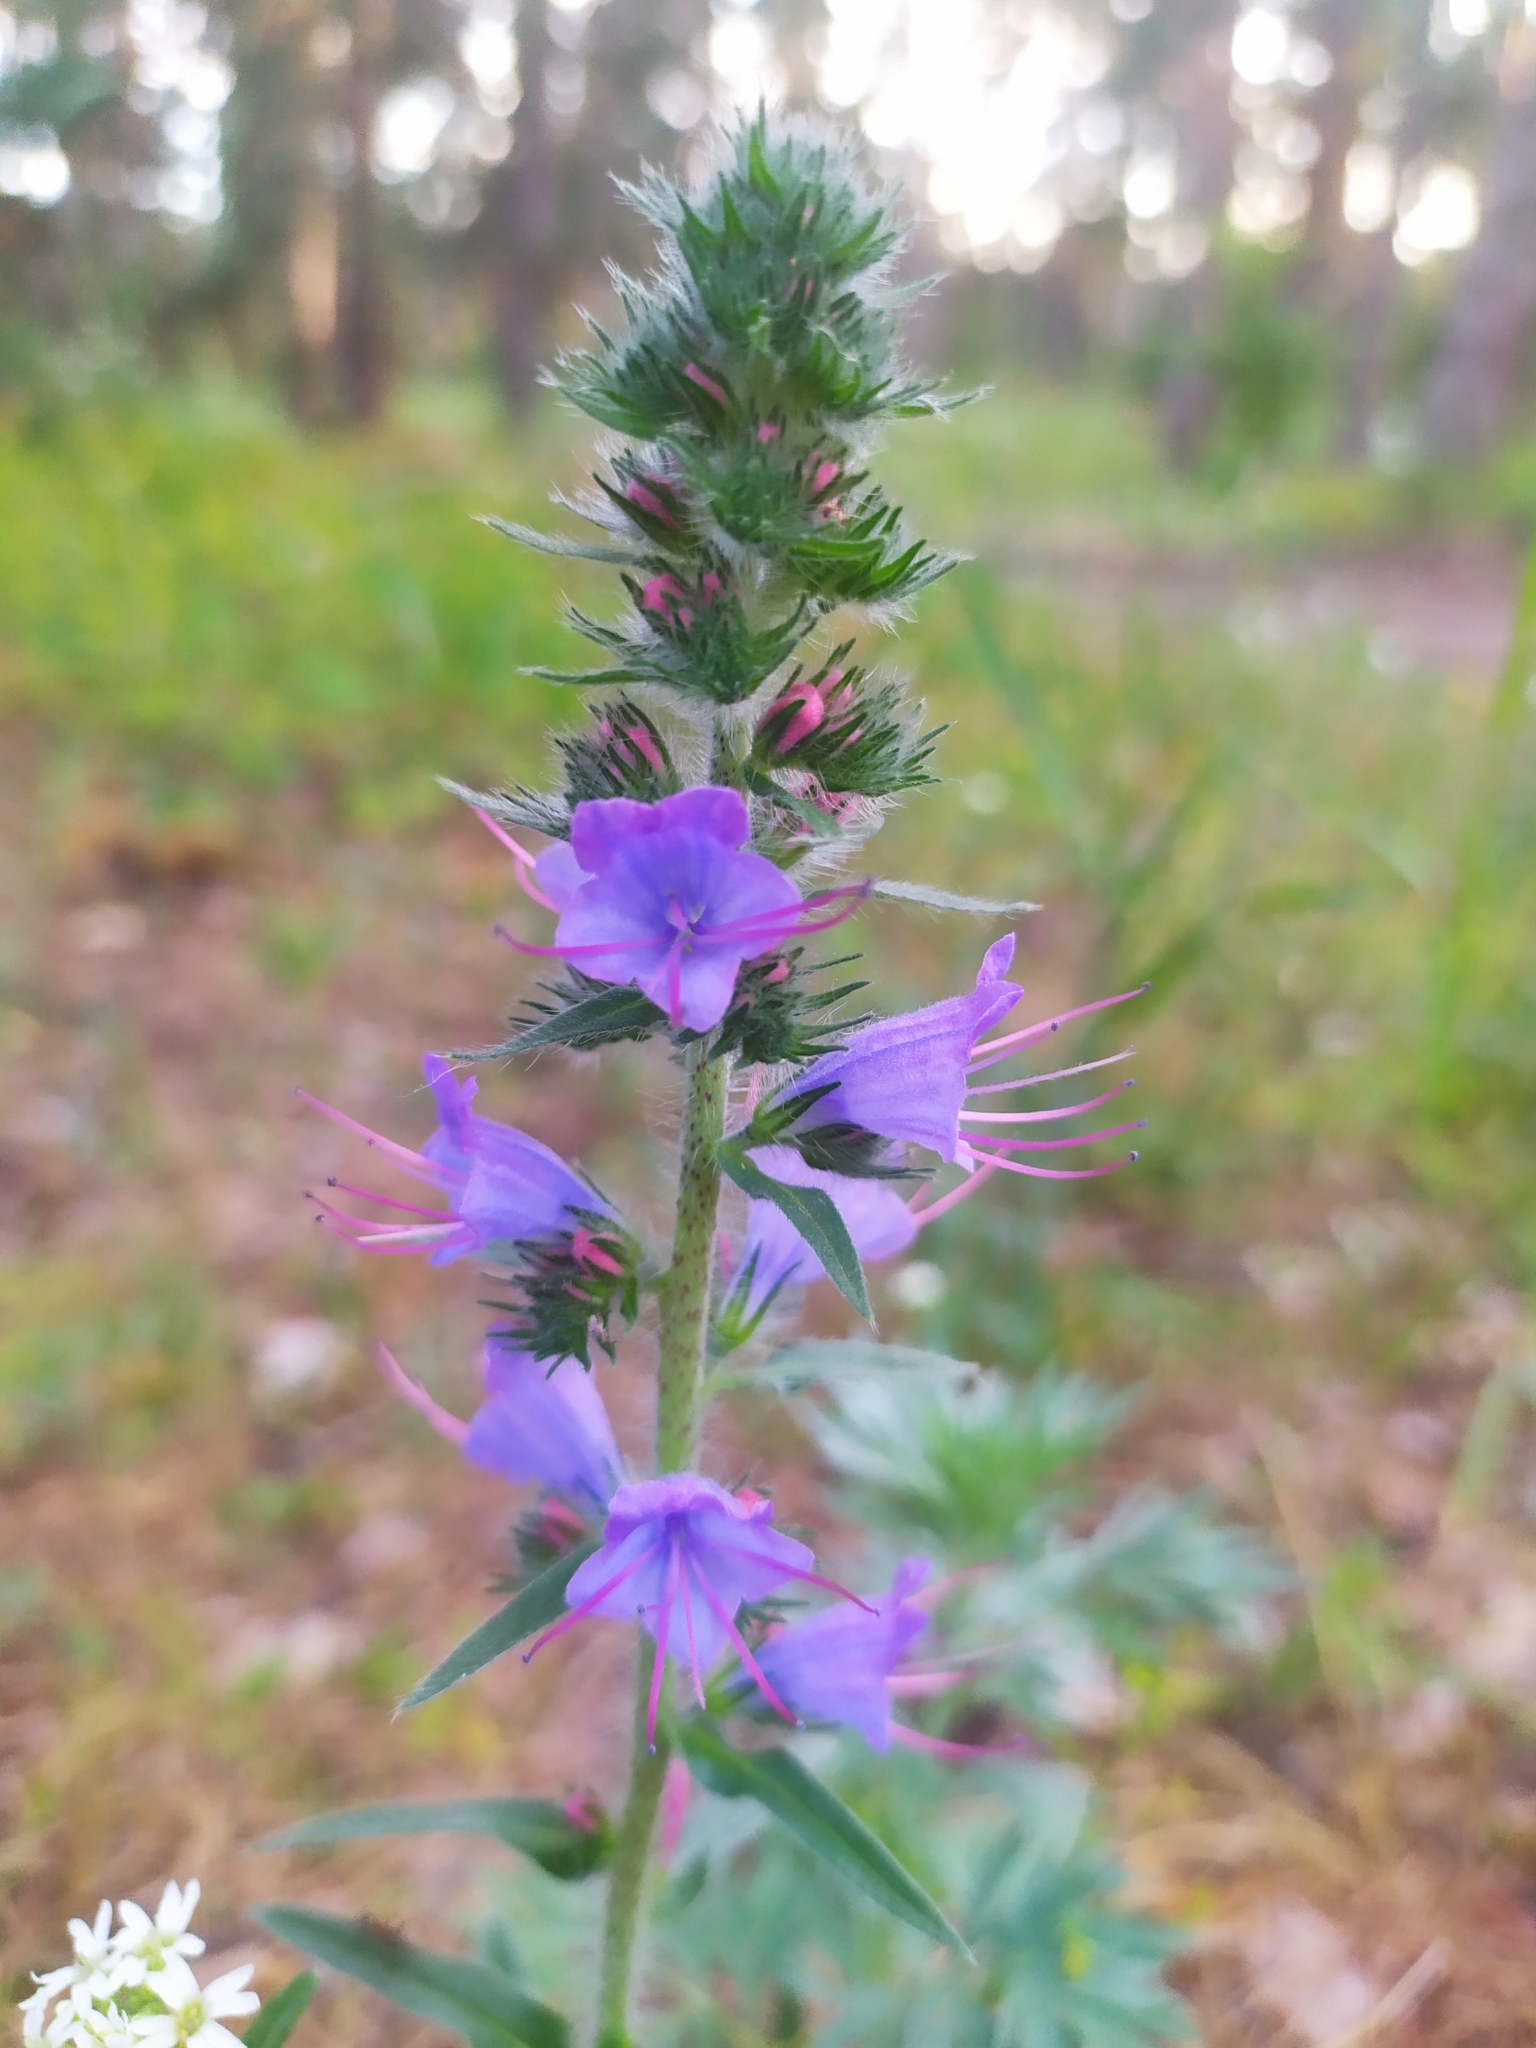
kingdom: Plantae
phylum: Tracheophyta
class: Magnoliopsida
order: Boraginales
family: Boraginaceae
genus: Echium
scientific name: Echium vulgare
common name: Common viper's bugloss
